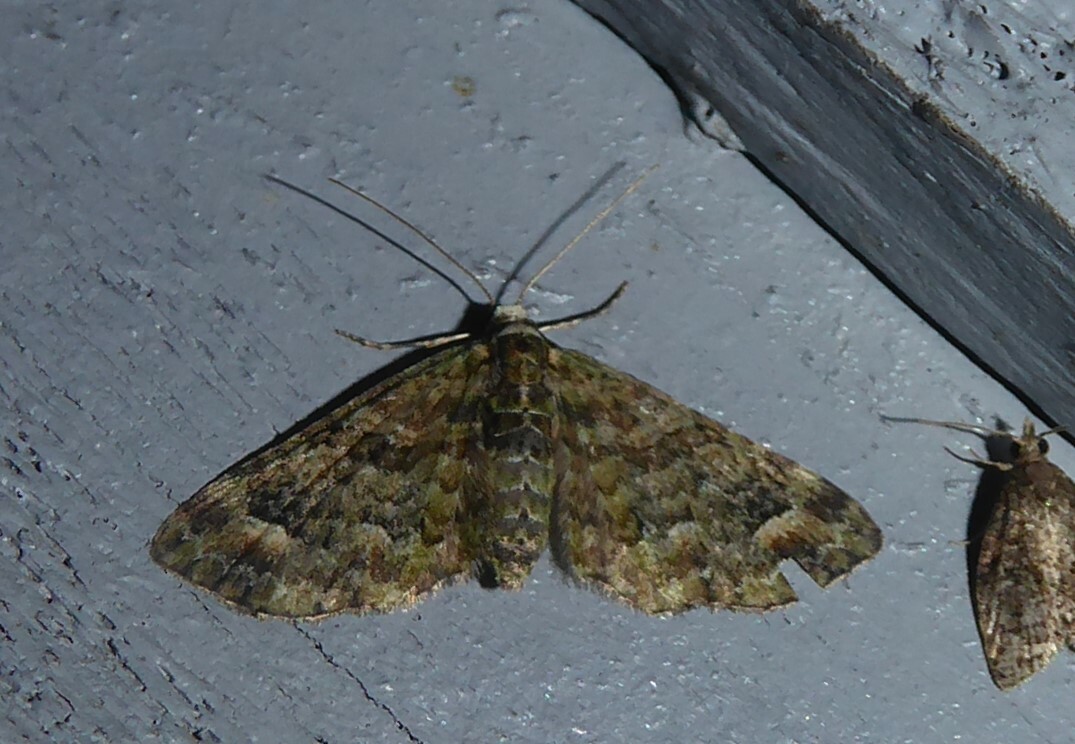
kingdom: Animalia
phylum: Arthropoda
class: Insecta
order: Lepidoptera
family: Geometridae
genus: Idaea
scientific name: Idaea mutanda
